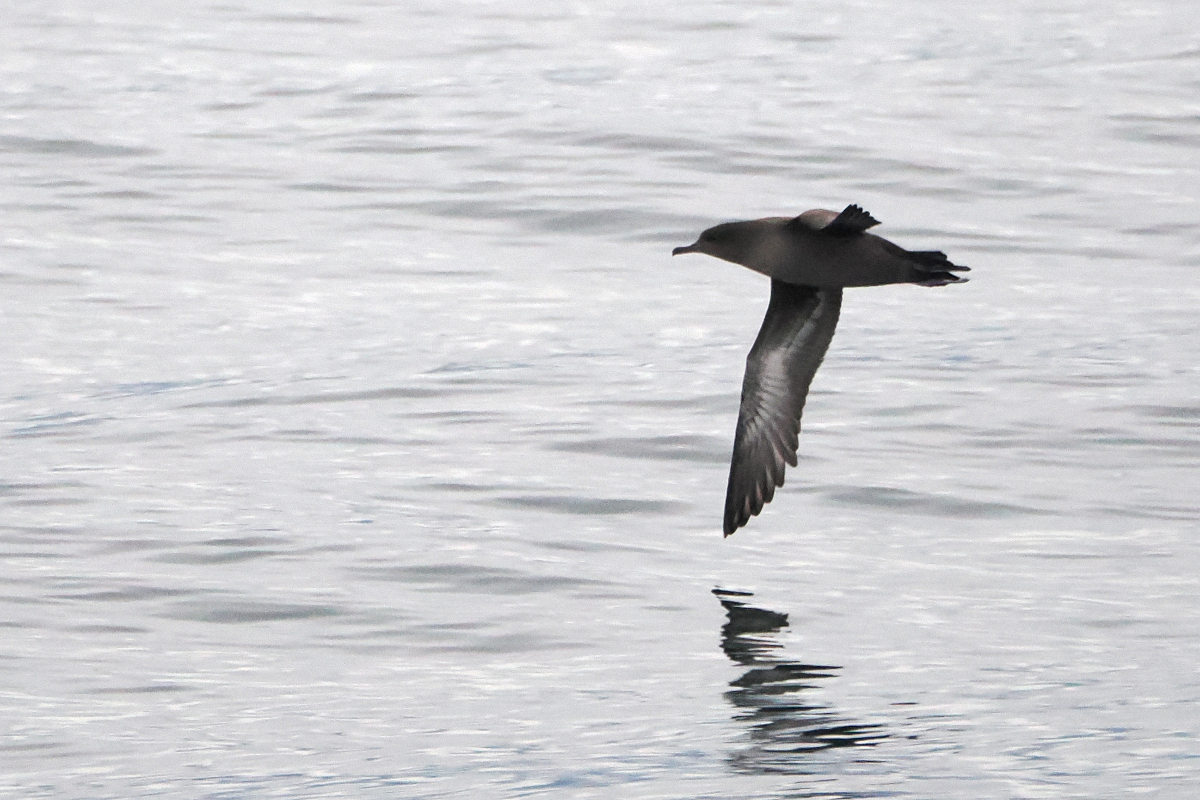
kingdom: Animalia
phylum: Chordata
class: Aves
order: Procellariiformes
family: Procellariidae
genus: Puffinus
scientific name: Puffinus griseus
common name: Sooty shearwater
